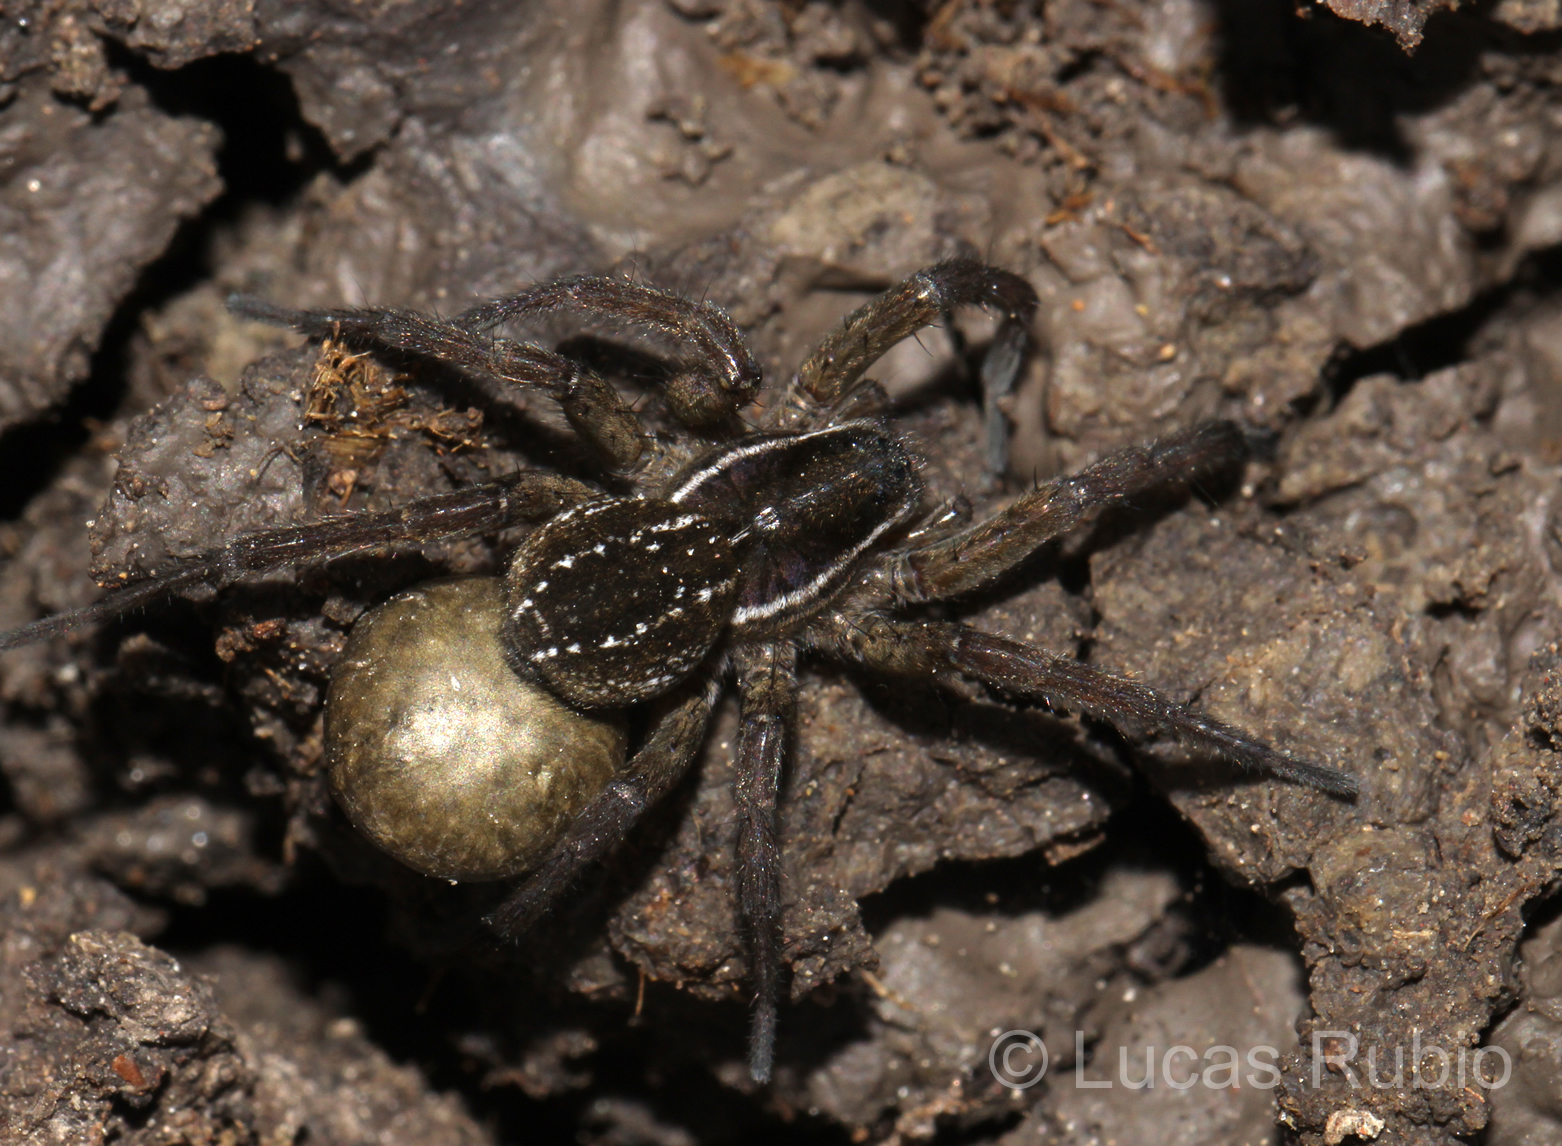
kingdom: Animalia
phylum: Arthropoda
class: Arachnida
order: Araneae
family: Lycosidae
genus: Diapontia
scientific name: Diapontia uruguayensis
